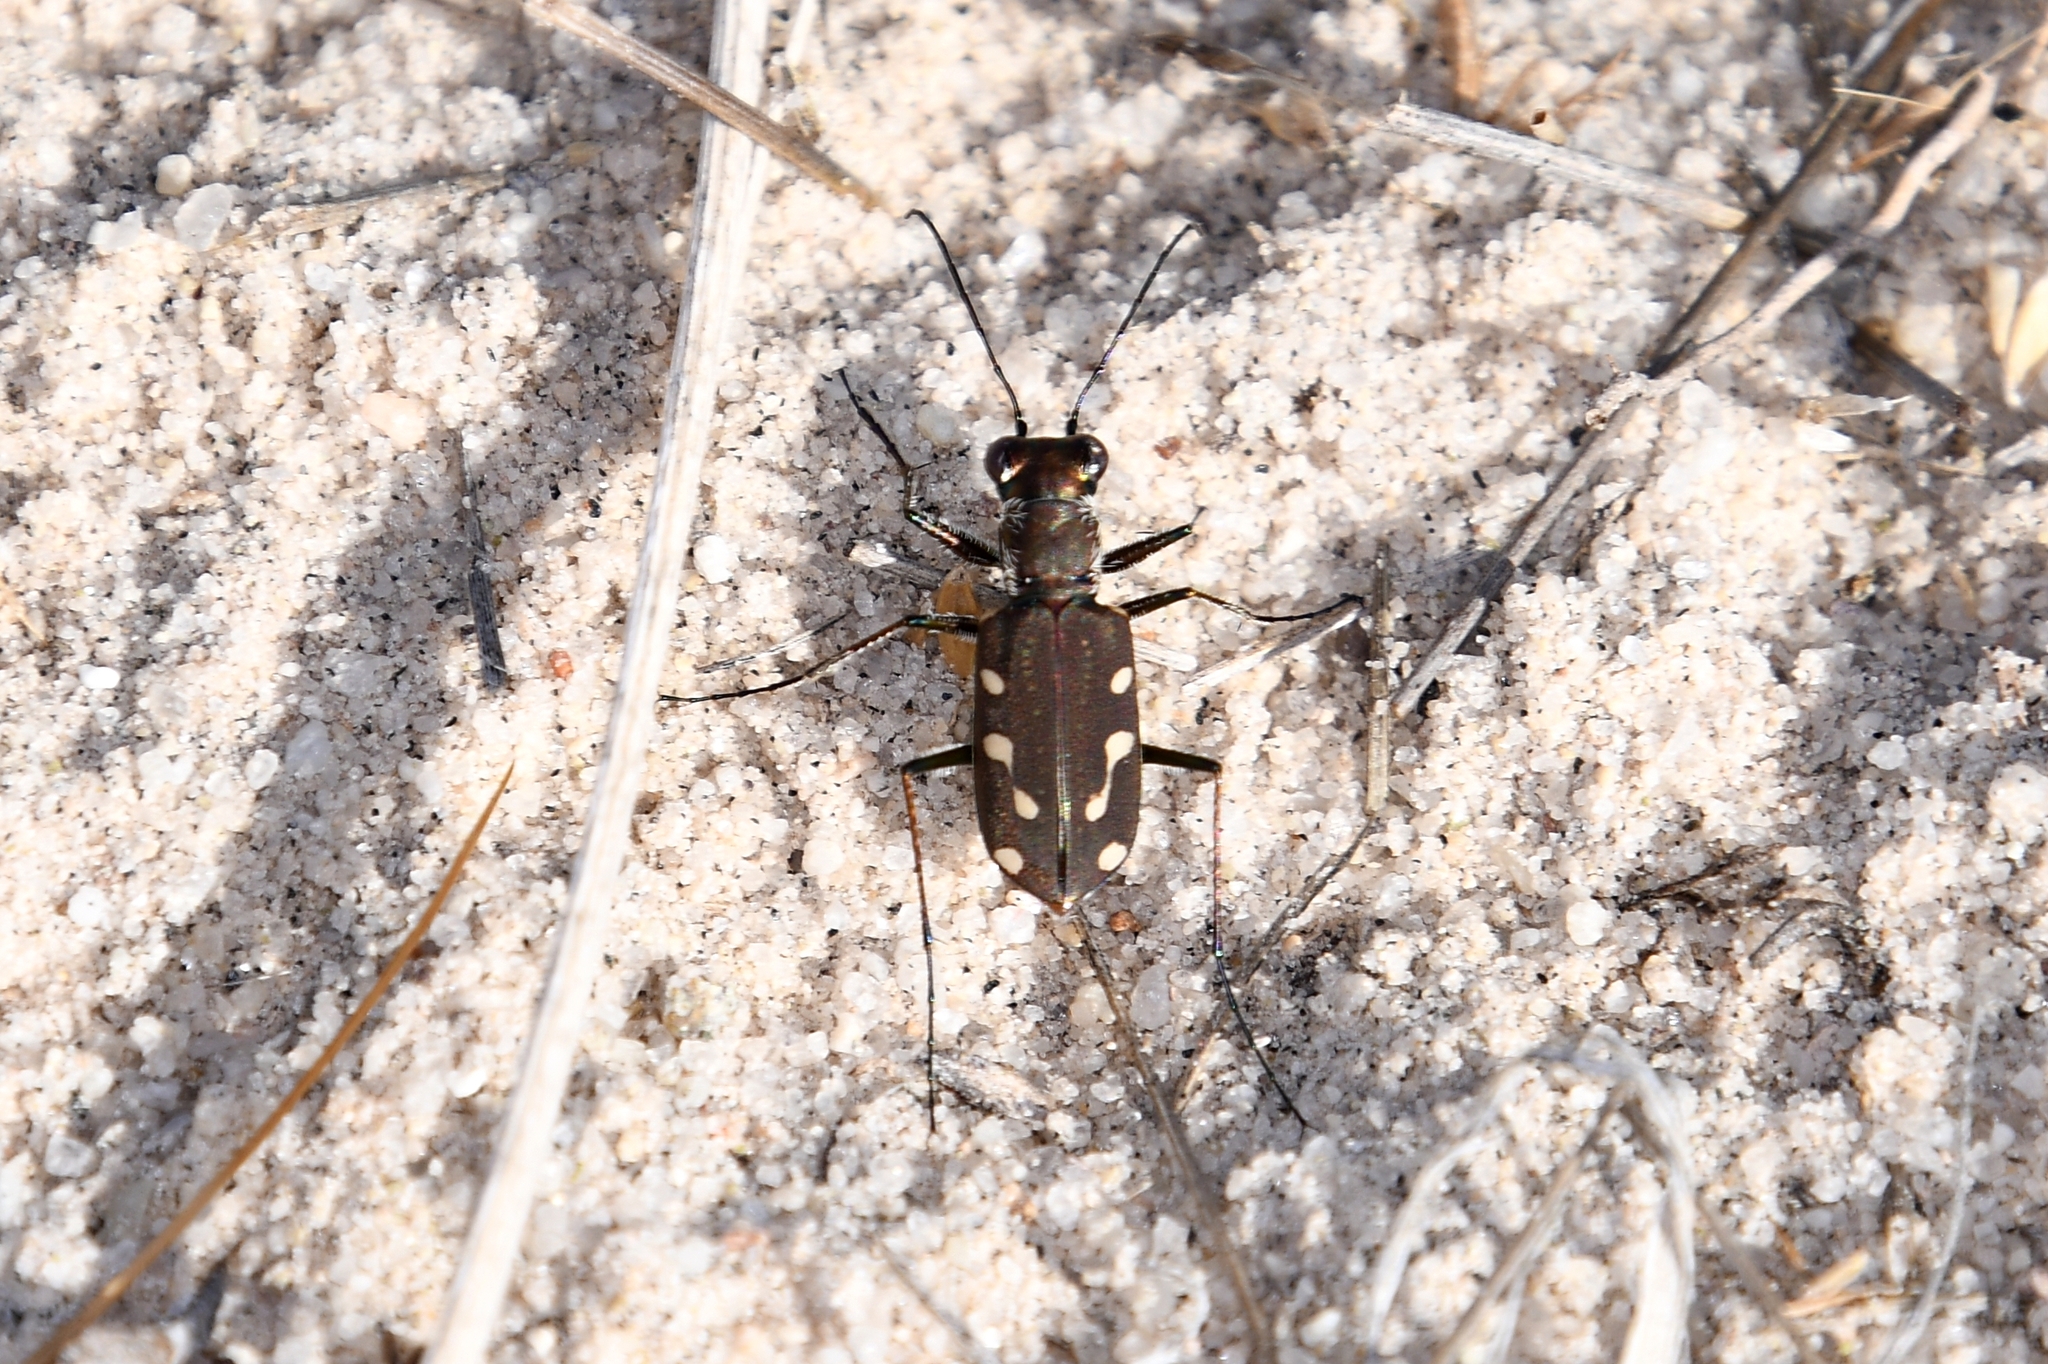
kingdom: Animalia
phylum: Arthropoda
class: Insecta
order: Coleoptera
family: Carabidae
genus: Cicindela
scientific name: Cicindela ocellata
